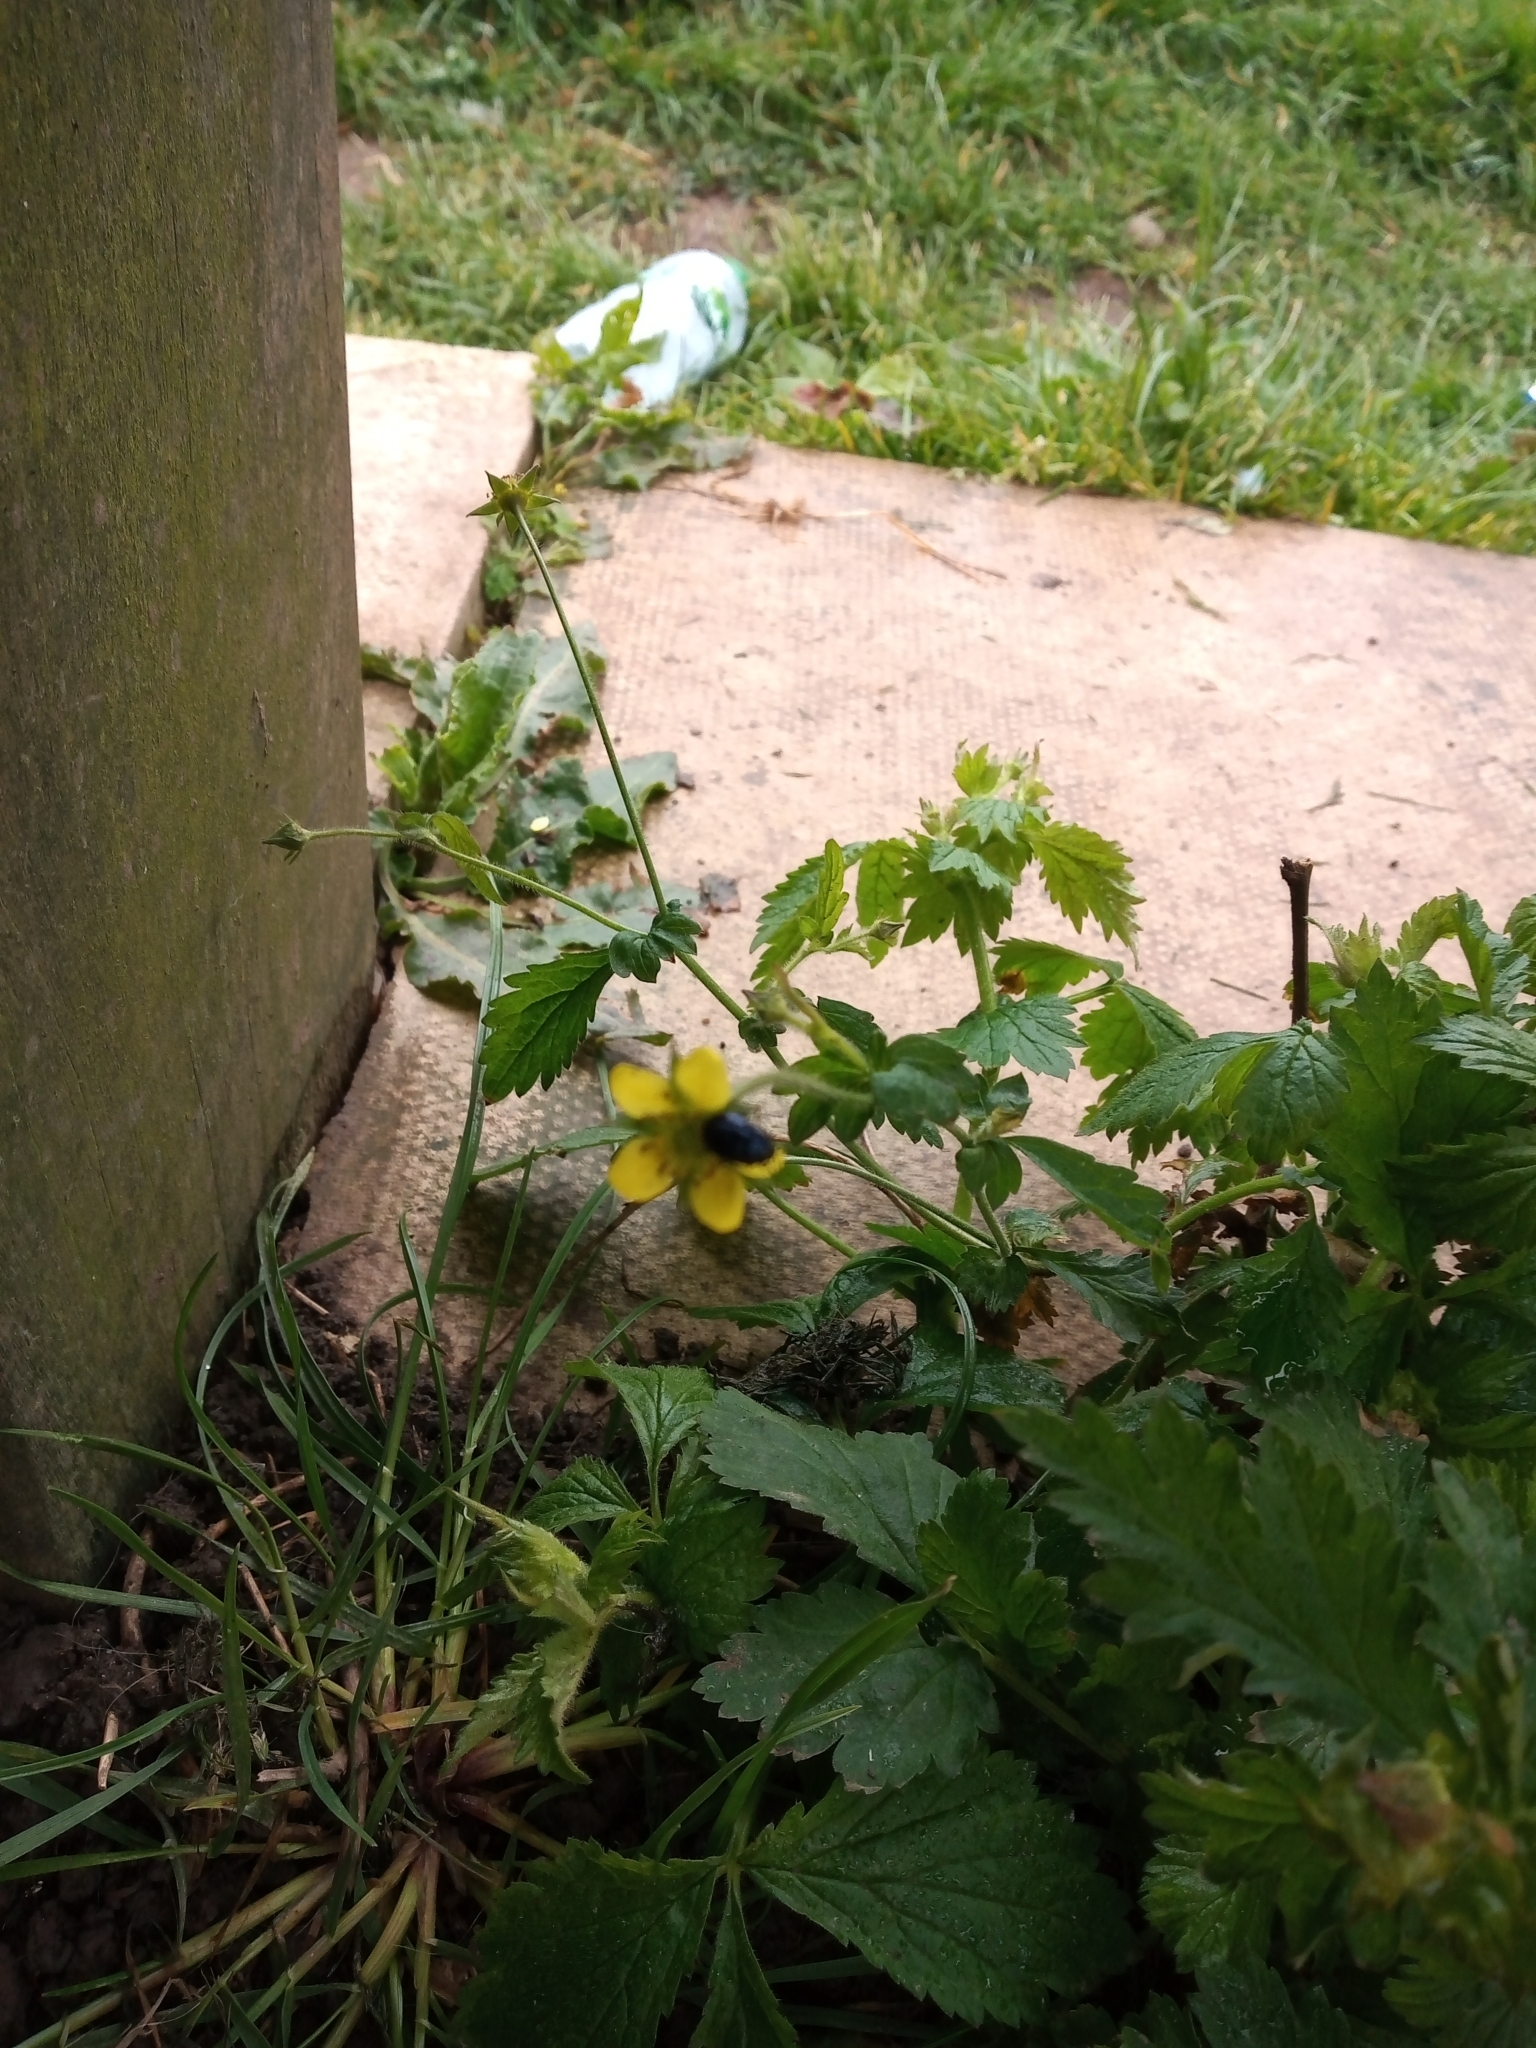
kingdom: Plantae
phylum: Tracheophyta
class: Magnoliopsida
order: Rosales
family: Rosaceae
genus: Geum
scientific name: Geum urbanum
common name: Wood avens
